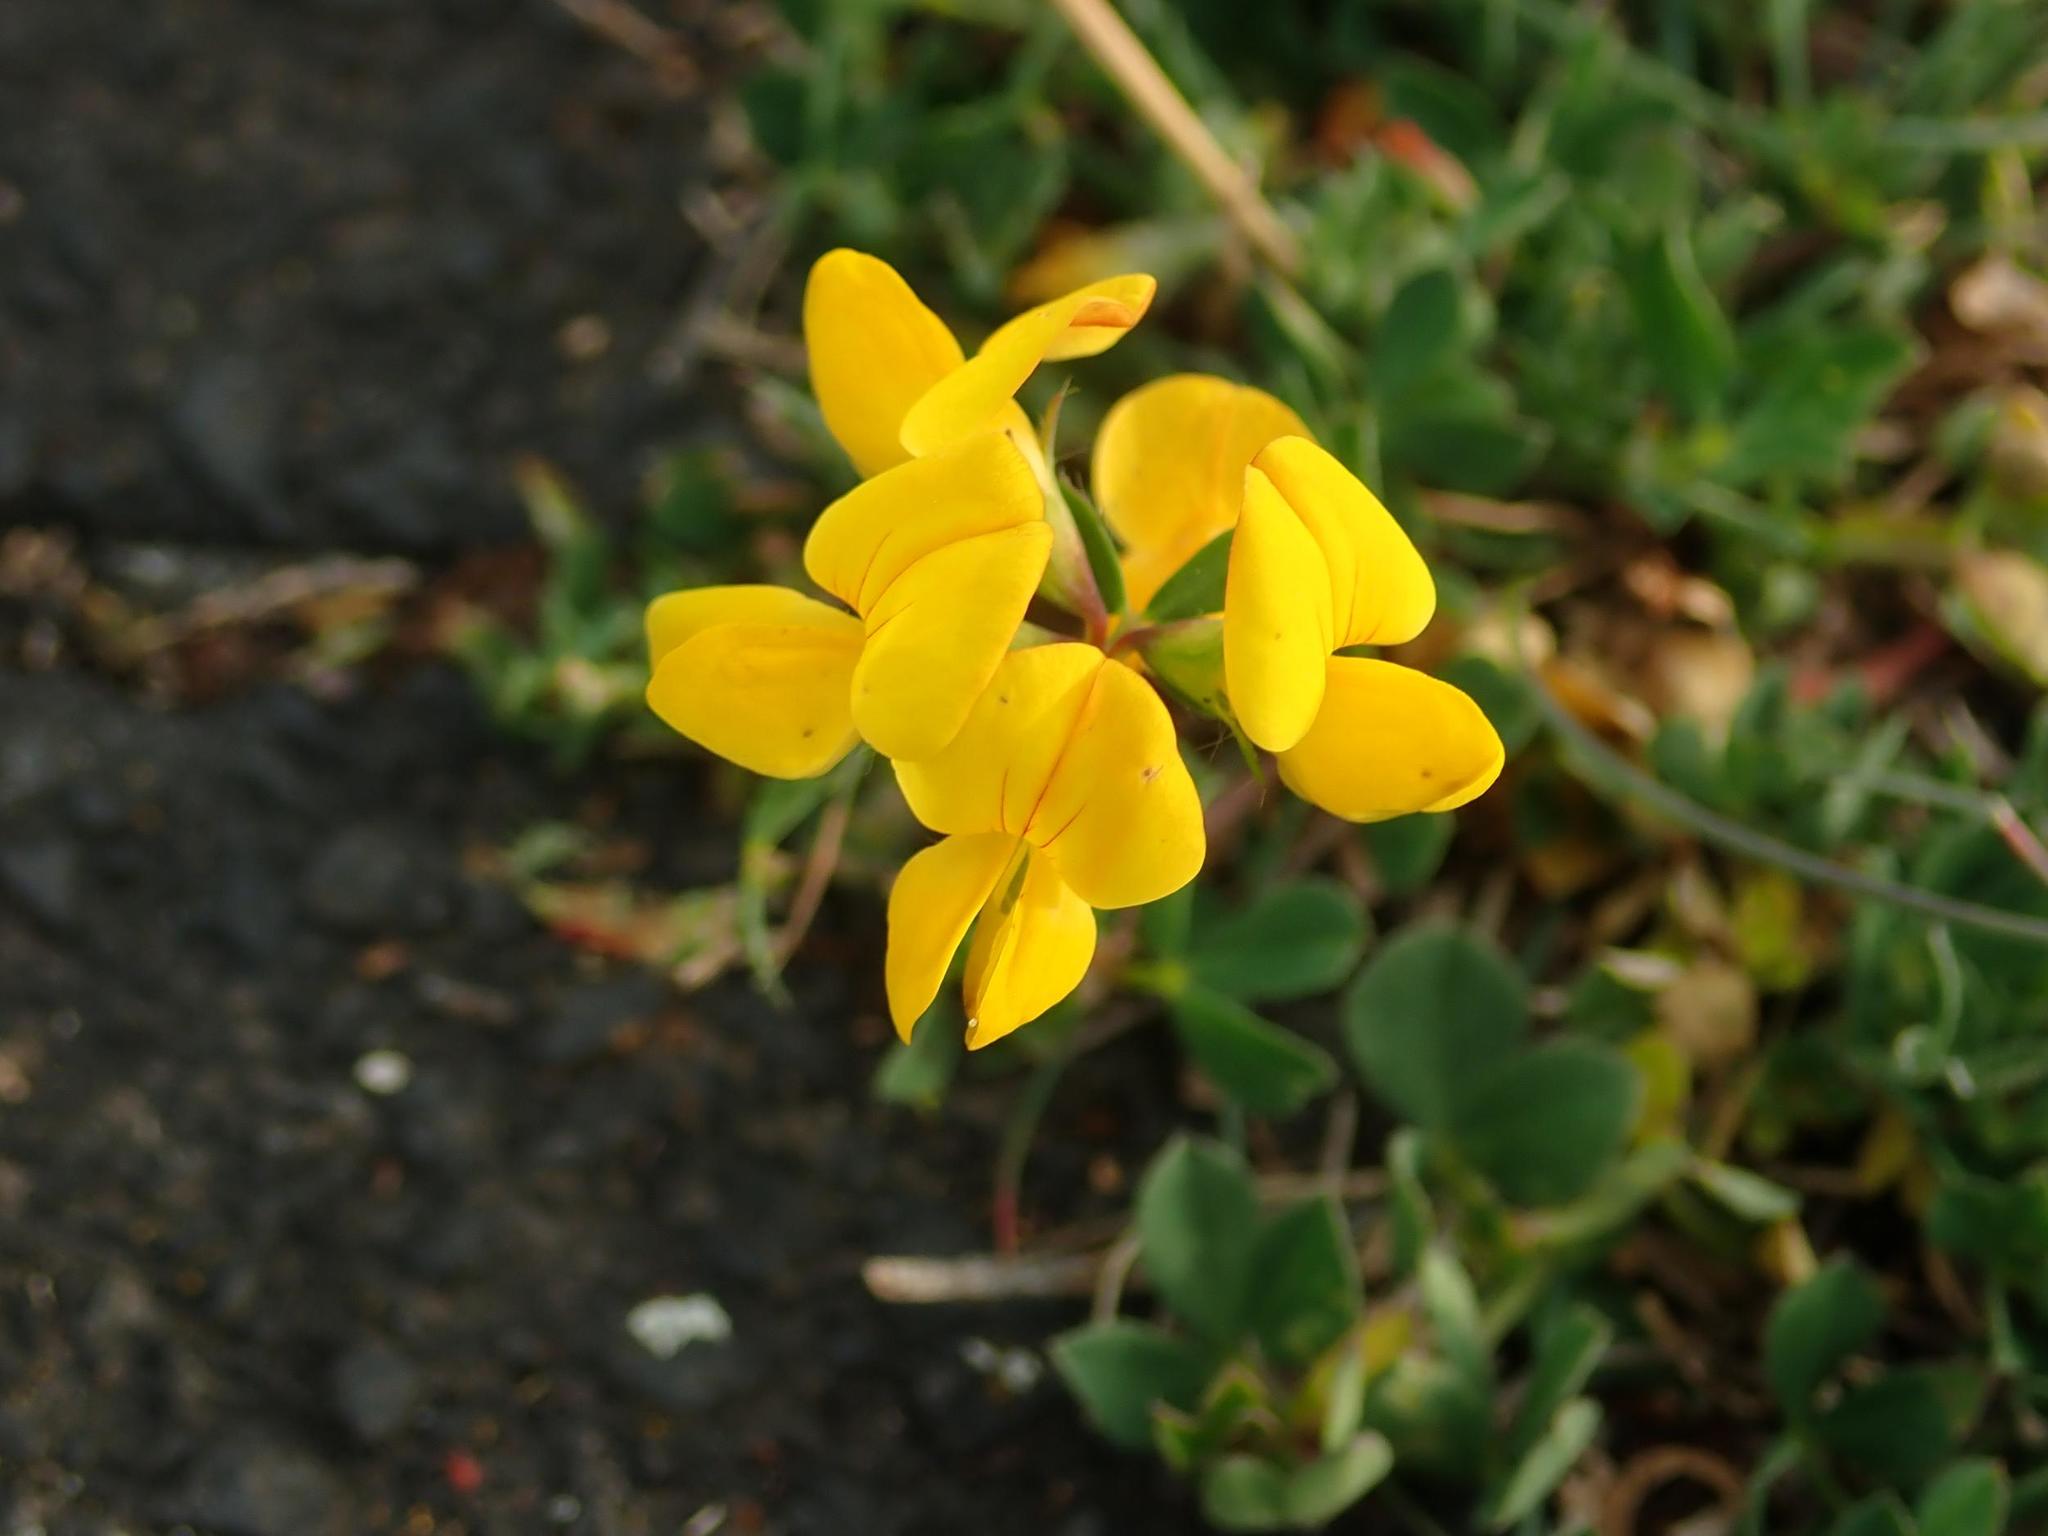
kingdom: Plantae
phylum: Tracheophyta
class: Magnoliopsida
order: Fabales
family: Fabaceae
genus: Lotus
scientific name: Lotus corniculatus
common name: Common bird's-foot-trefoil
